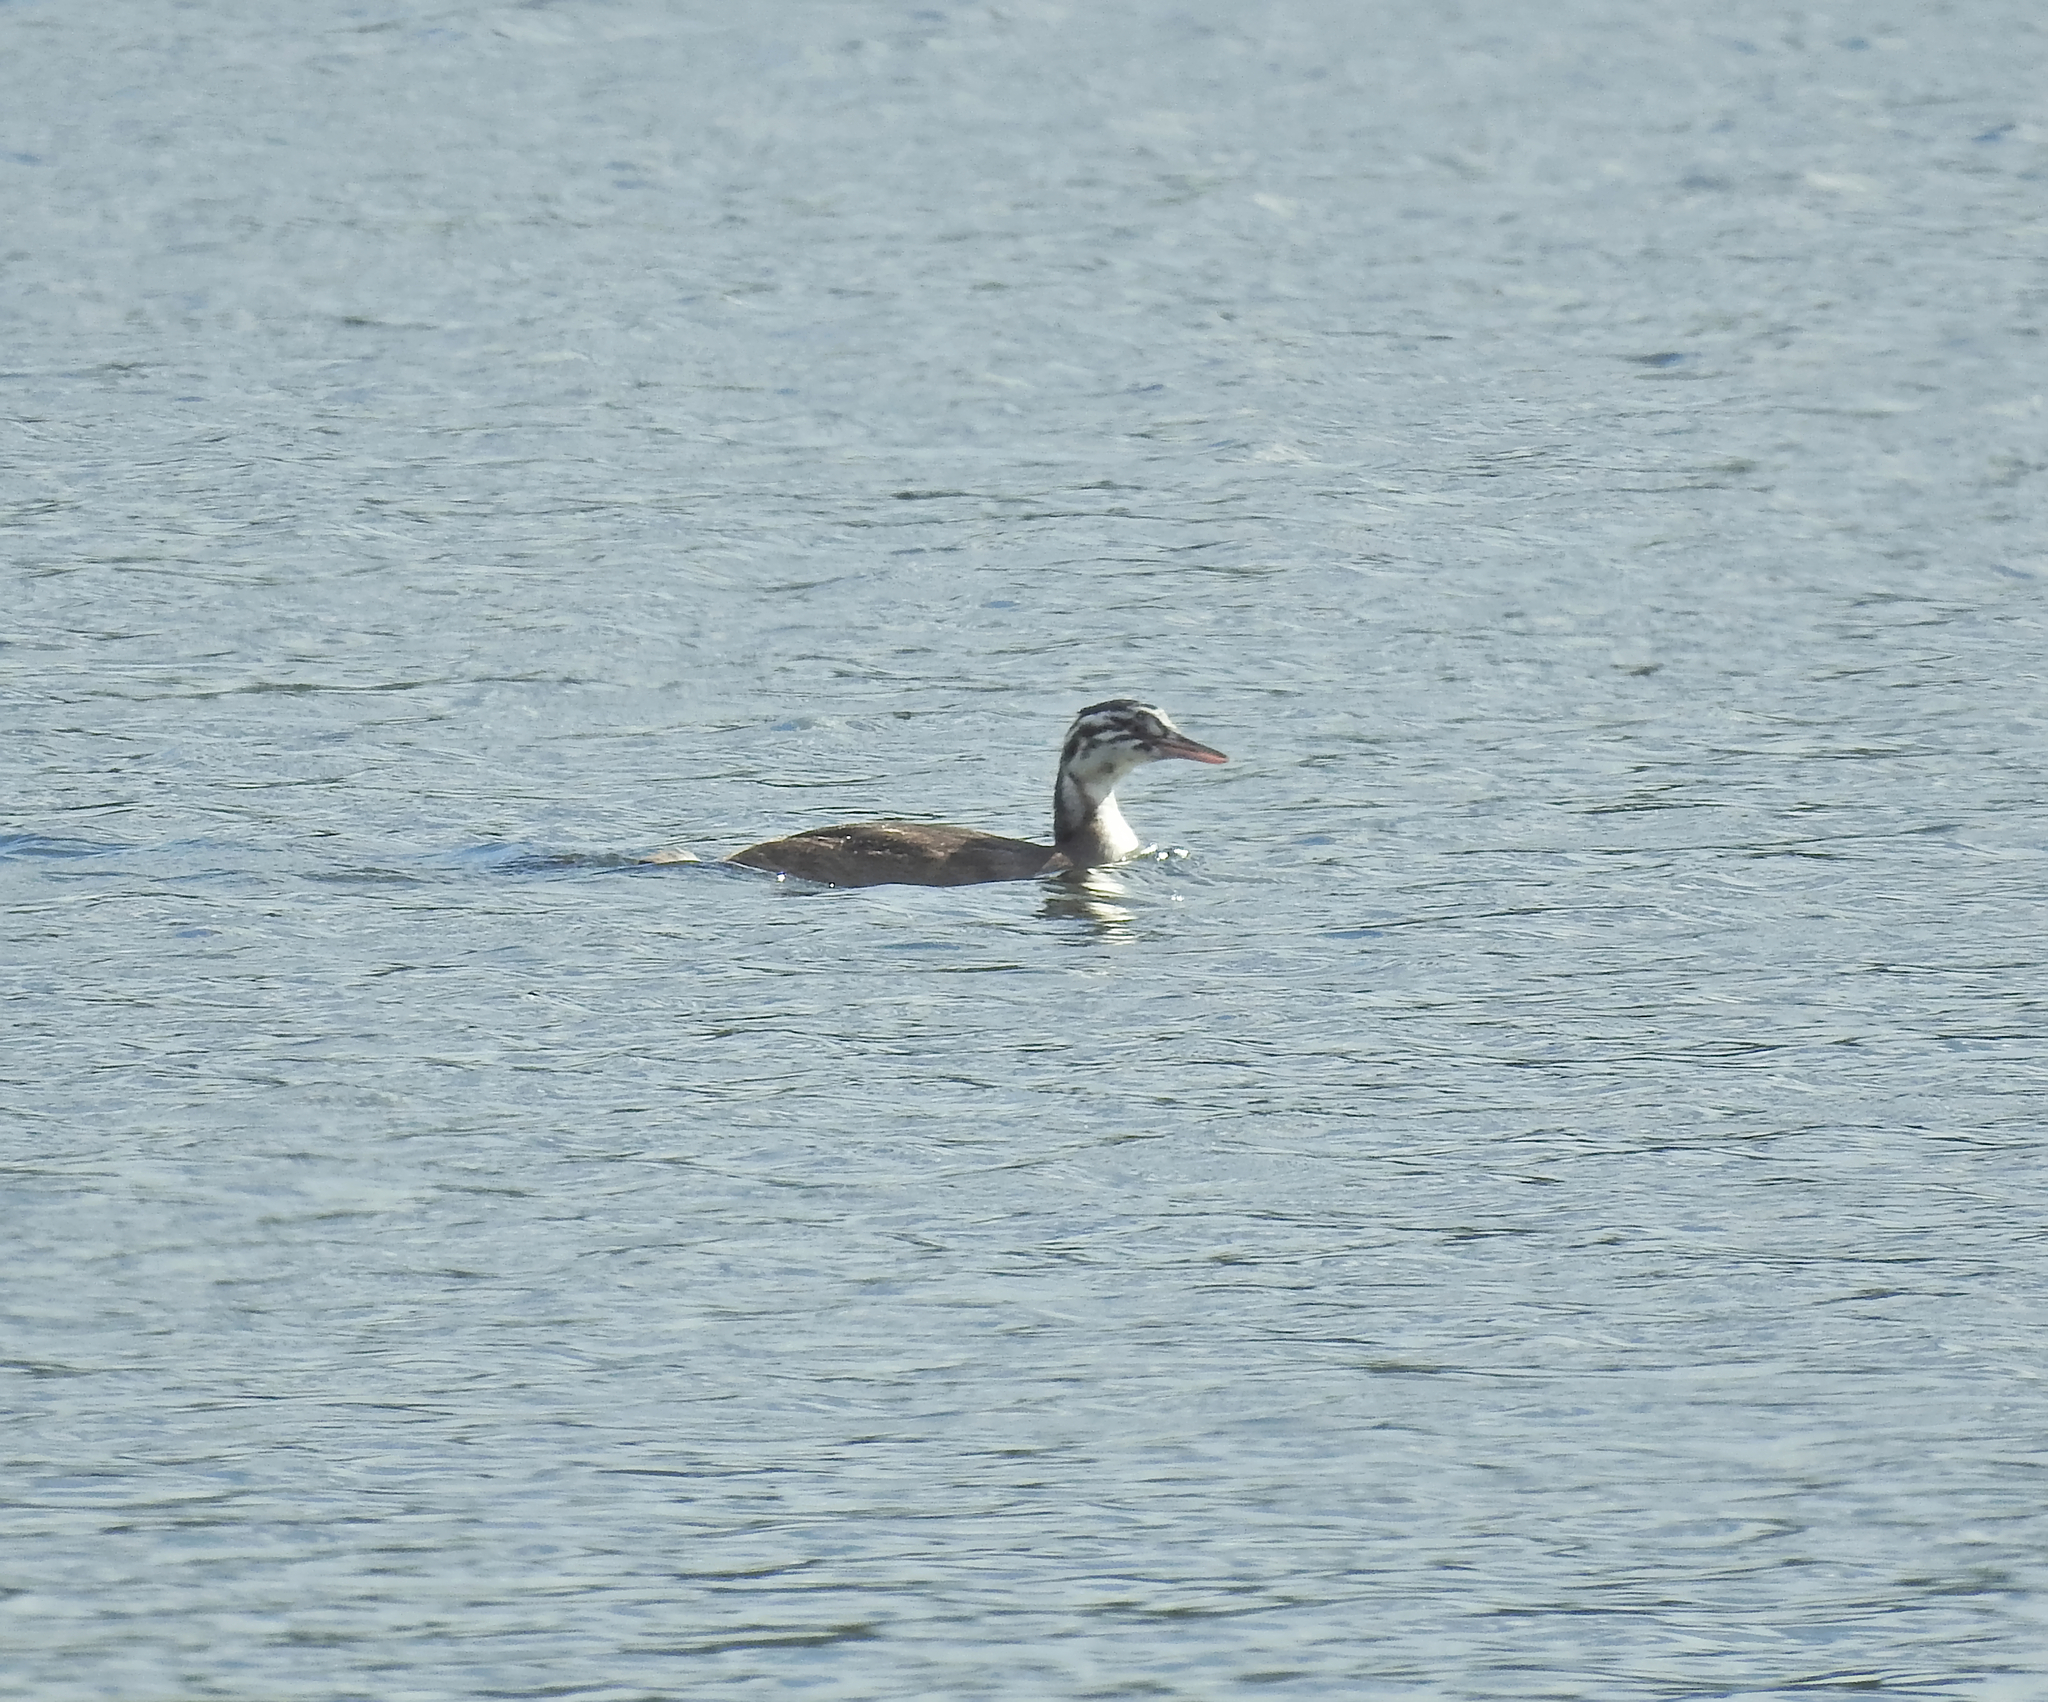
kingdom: Animalia
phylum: Chordata
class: Aves
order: Podicipediformes
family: Podicipedidae
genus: Podiceps
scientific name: Podiceps cristatus
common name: Great crested grebe
